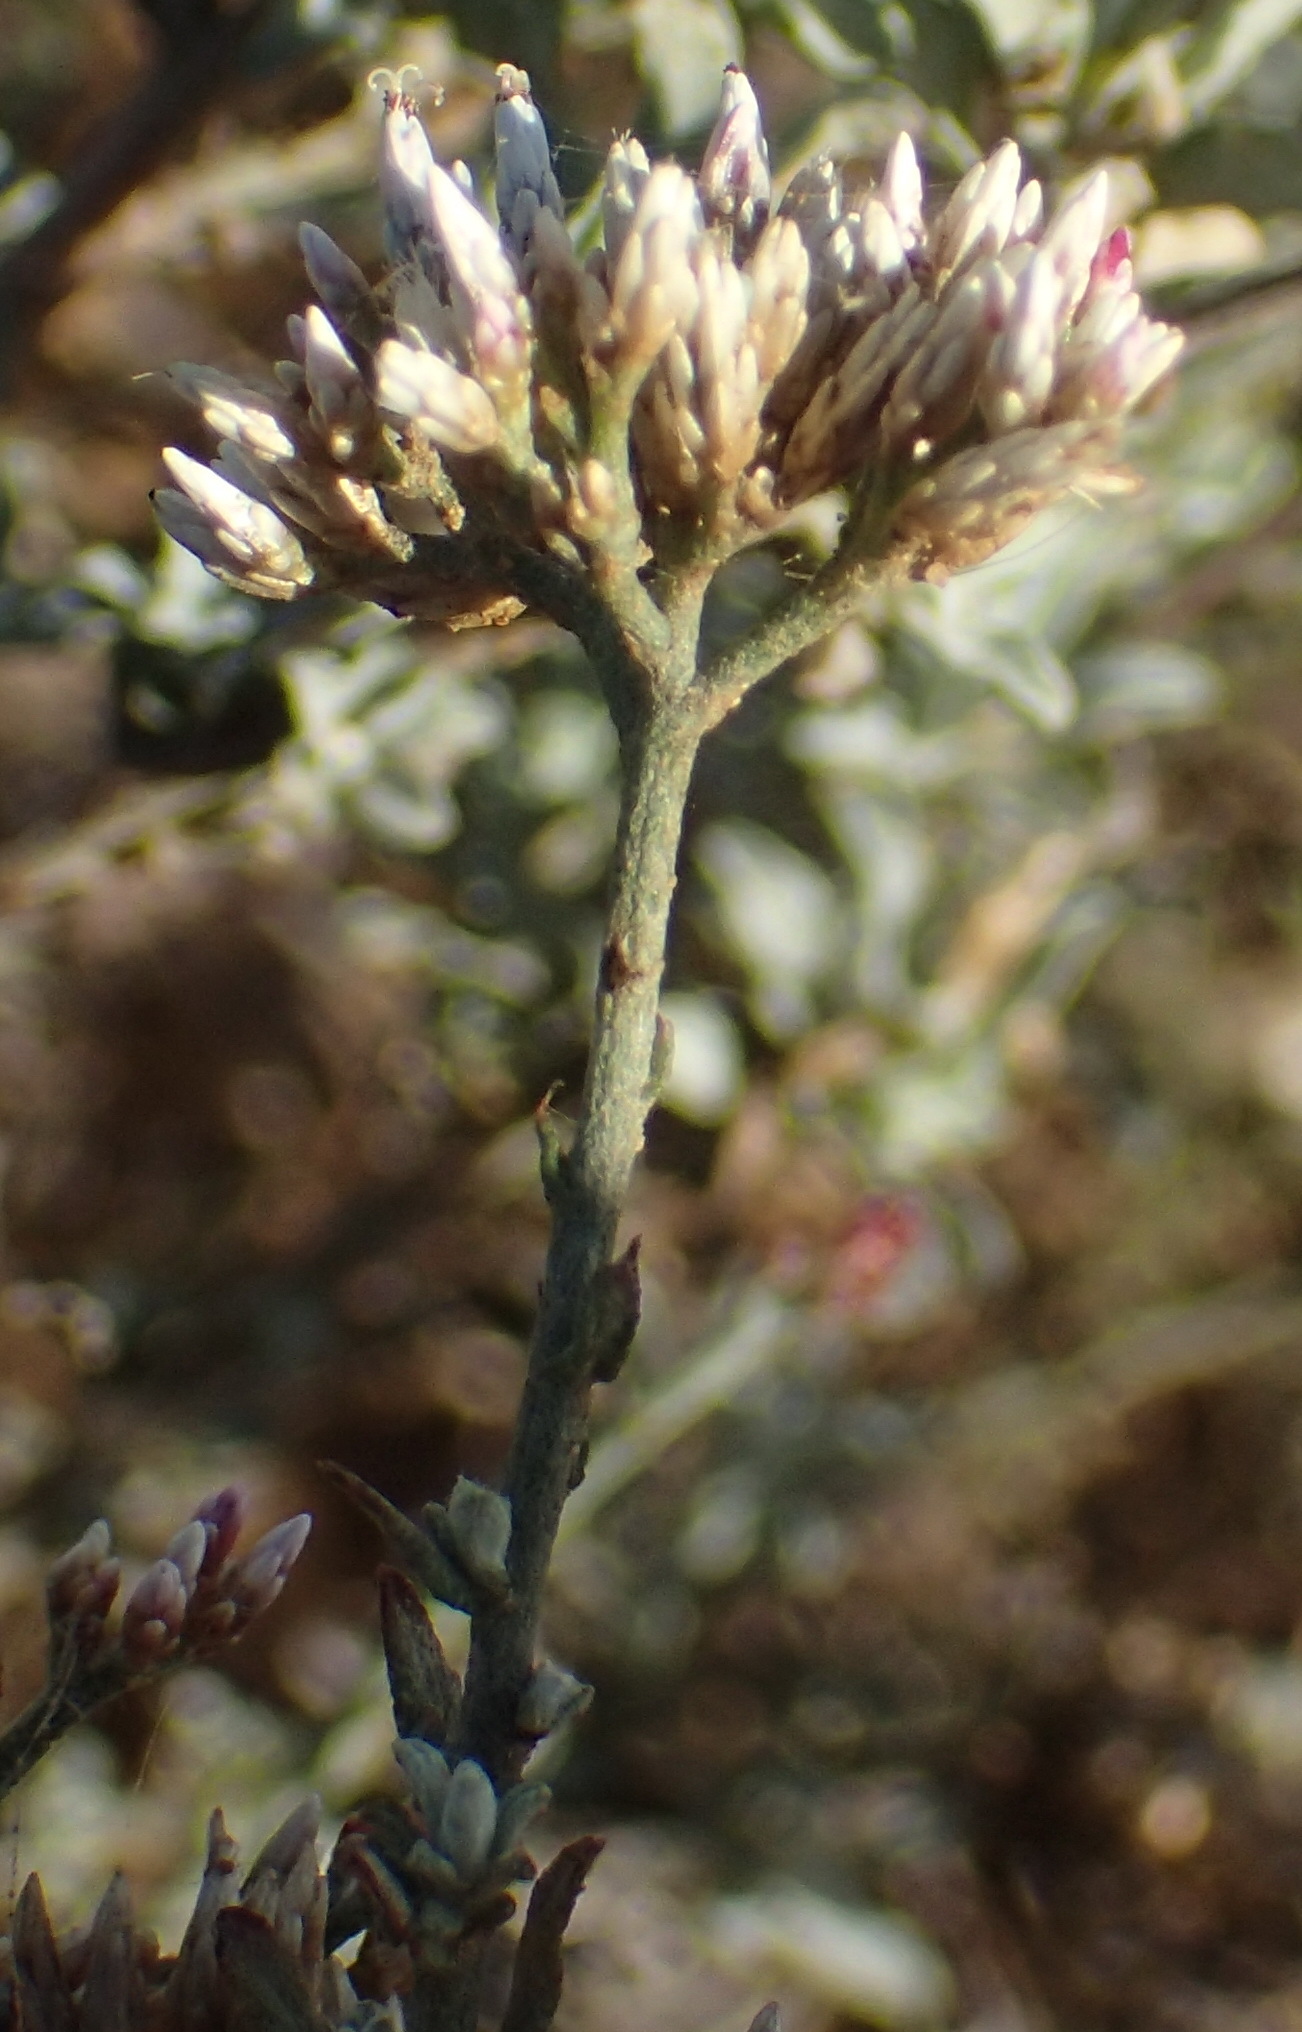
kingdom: Plantae
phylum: Tracheophyta
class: Magnoliopsida
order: Asterales
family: Asteraceae
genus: Helichrysum
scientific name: Helichrysum zeyheri
